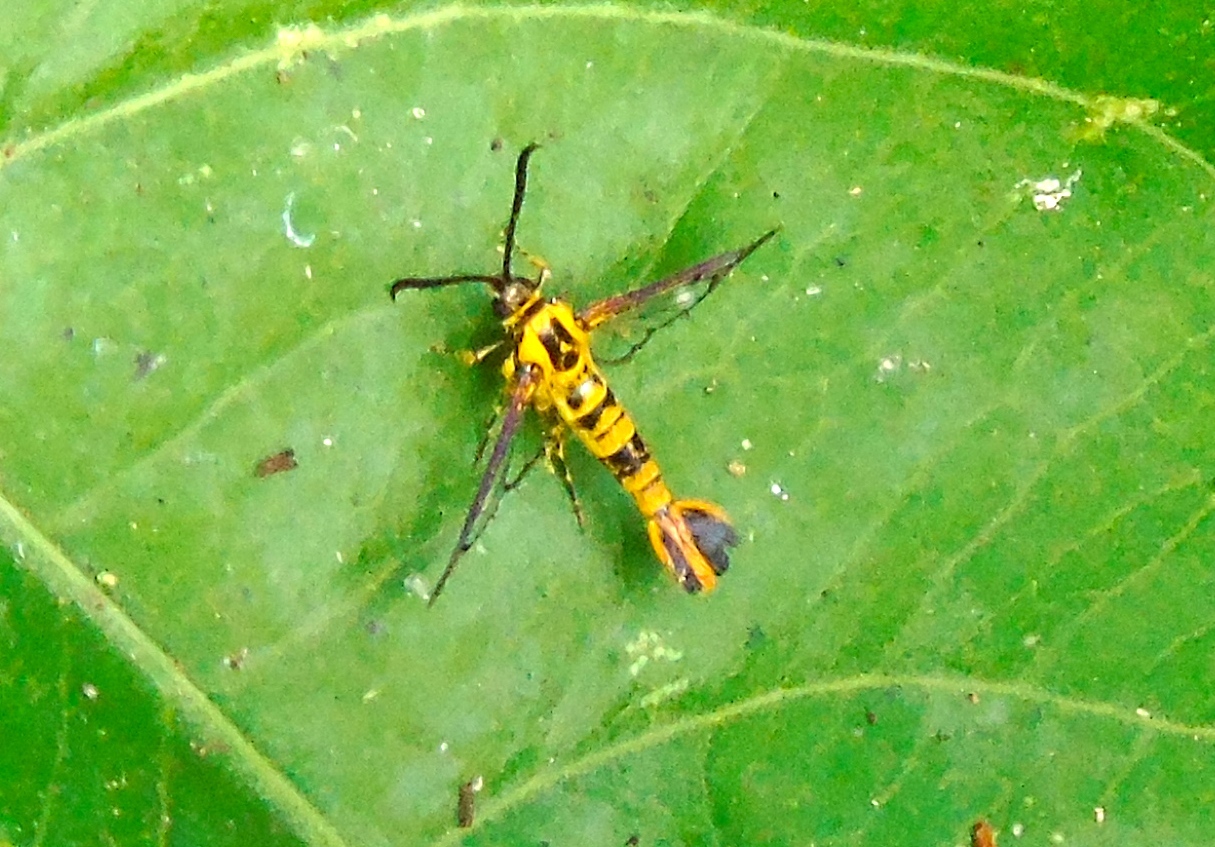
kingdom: Animalia
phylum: Arthropoda
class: Insecta
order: Lepidoptera
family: Sesiidae
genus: Carmenta
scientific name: Carmenta
